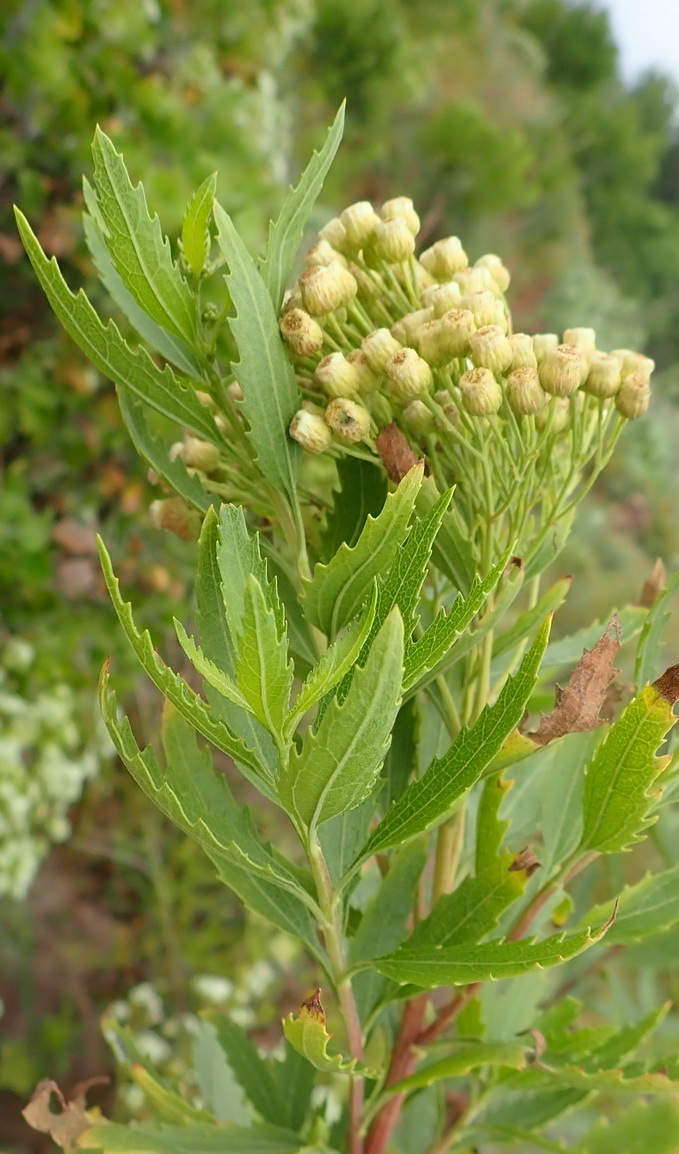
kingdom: Plantae
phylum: Tracheophyta
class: Magnoliopsida
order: Asterales
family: Asteraceae
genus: Nidorella
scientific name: Nidorella ivifolia
